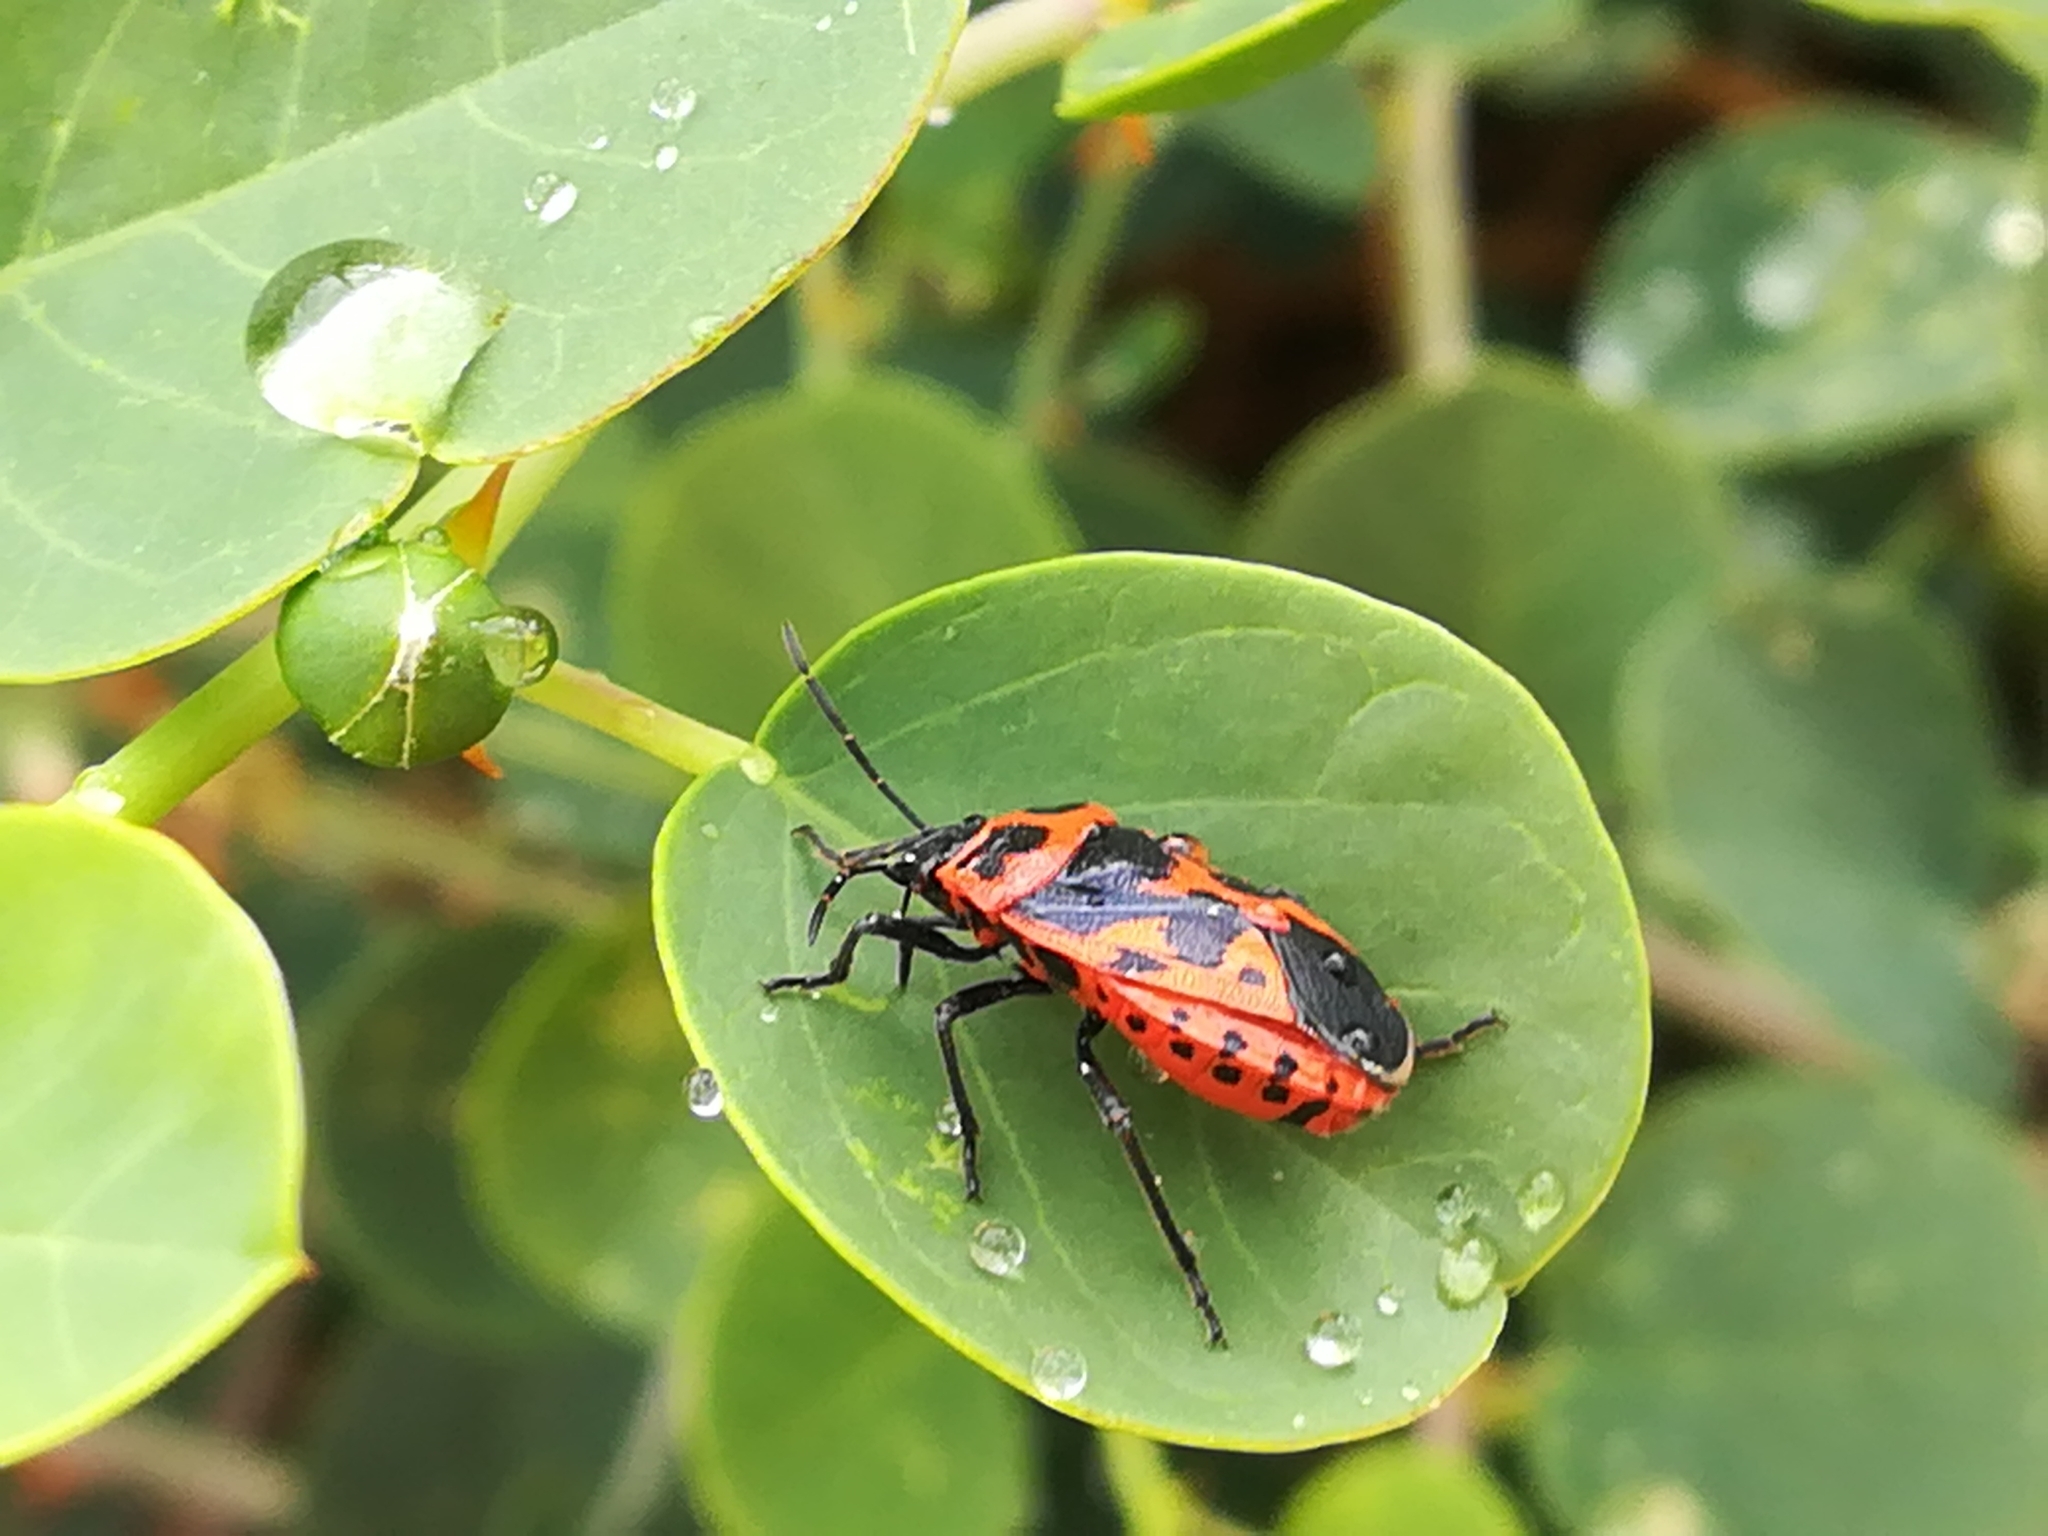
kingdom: Animalia
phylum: Arthropoda
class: Insecta
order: Hemiptera
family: Pentatomidae
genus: Eurydema
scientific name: Eurydema spectabilis
